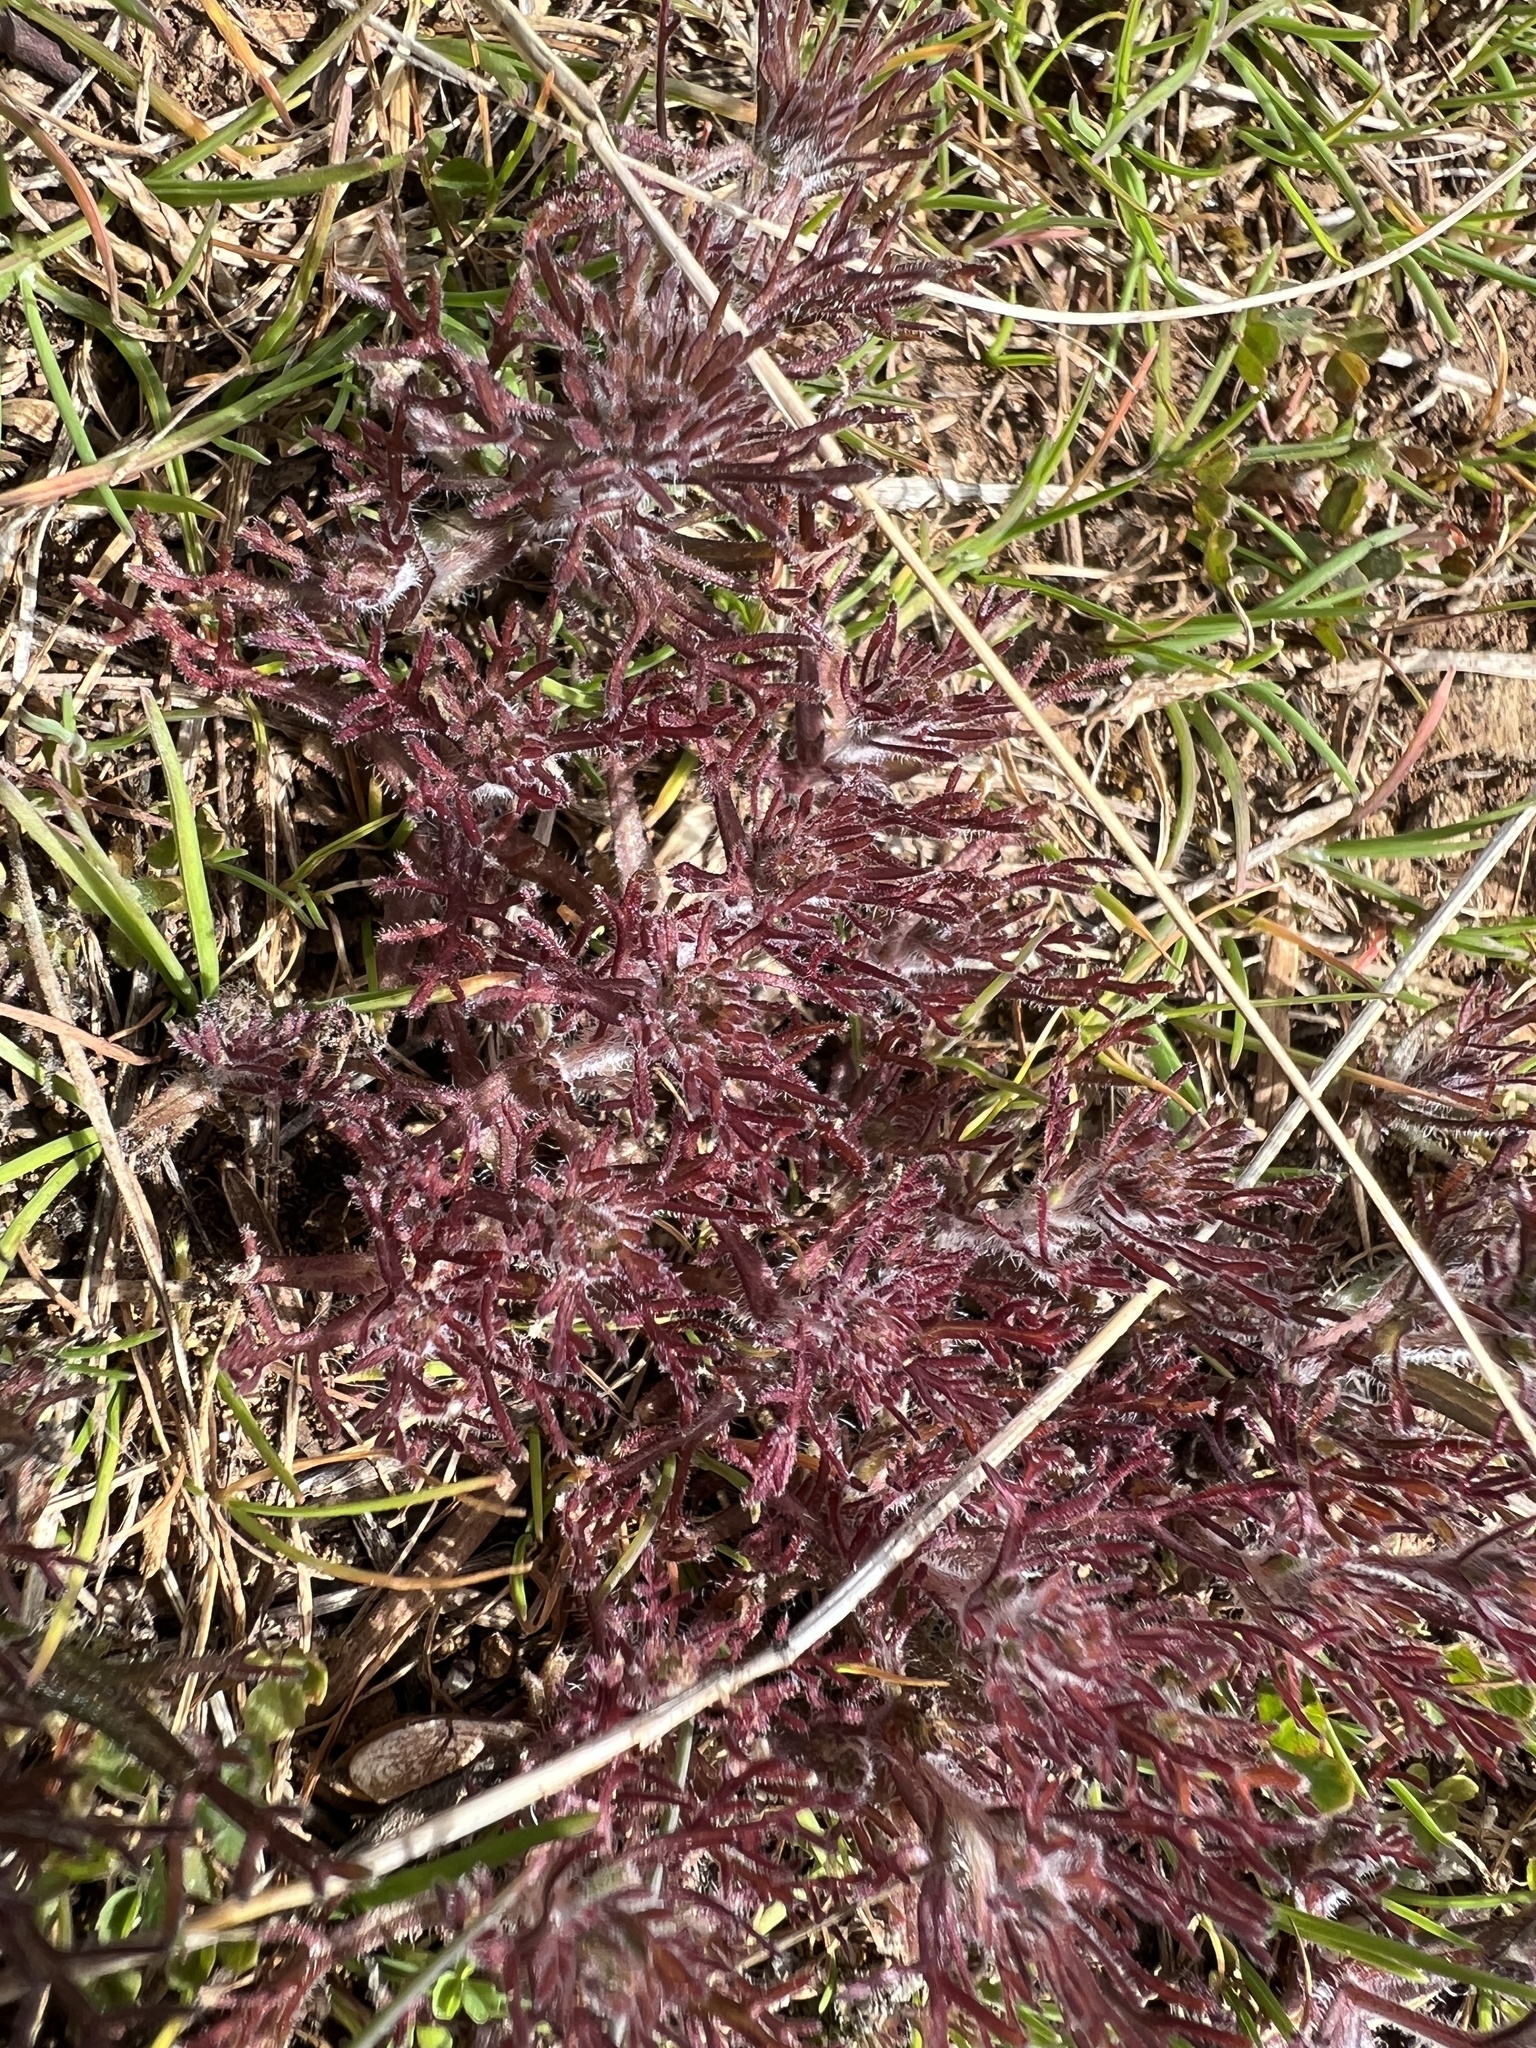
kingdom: Plantae
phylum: Tracheophyta
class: Magnoliopsida
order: Lamiales
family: Orobanchaceae
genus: Triphysaria
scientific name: Triphysaria pusilla
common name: Dwarf false owl-clover
